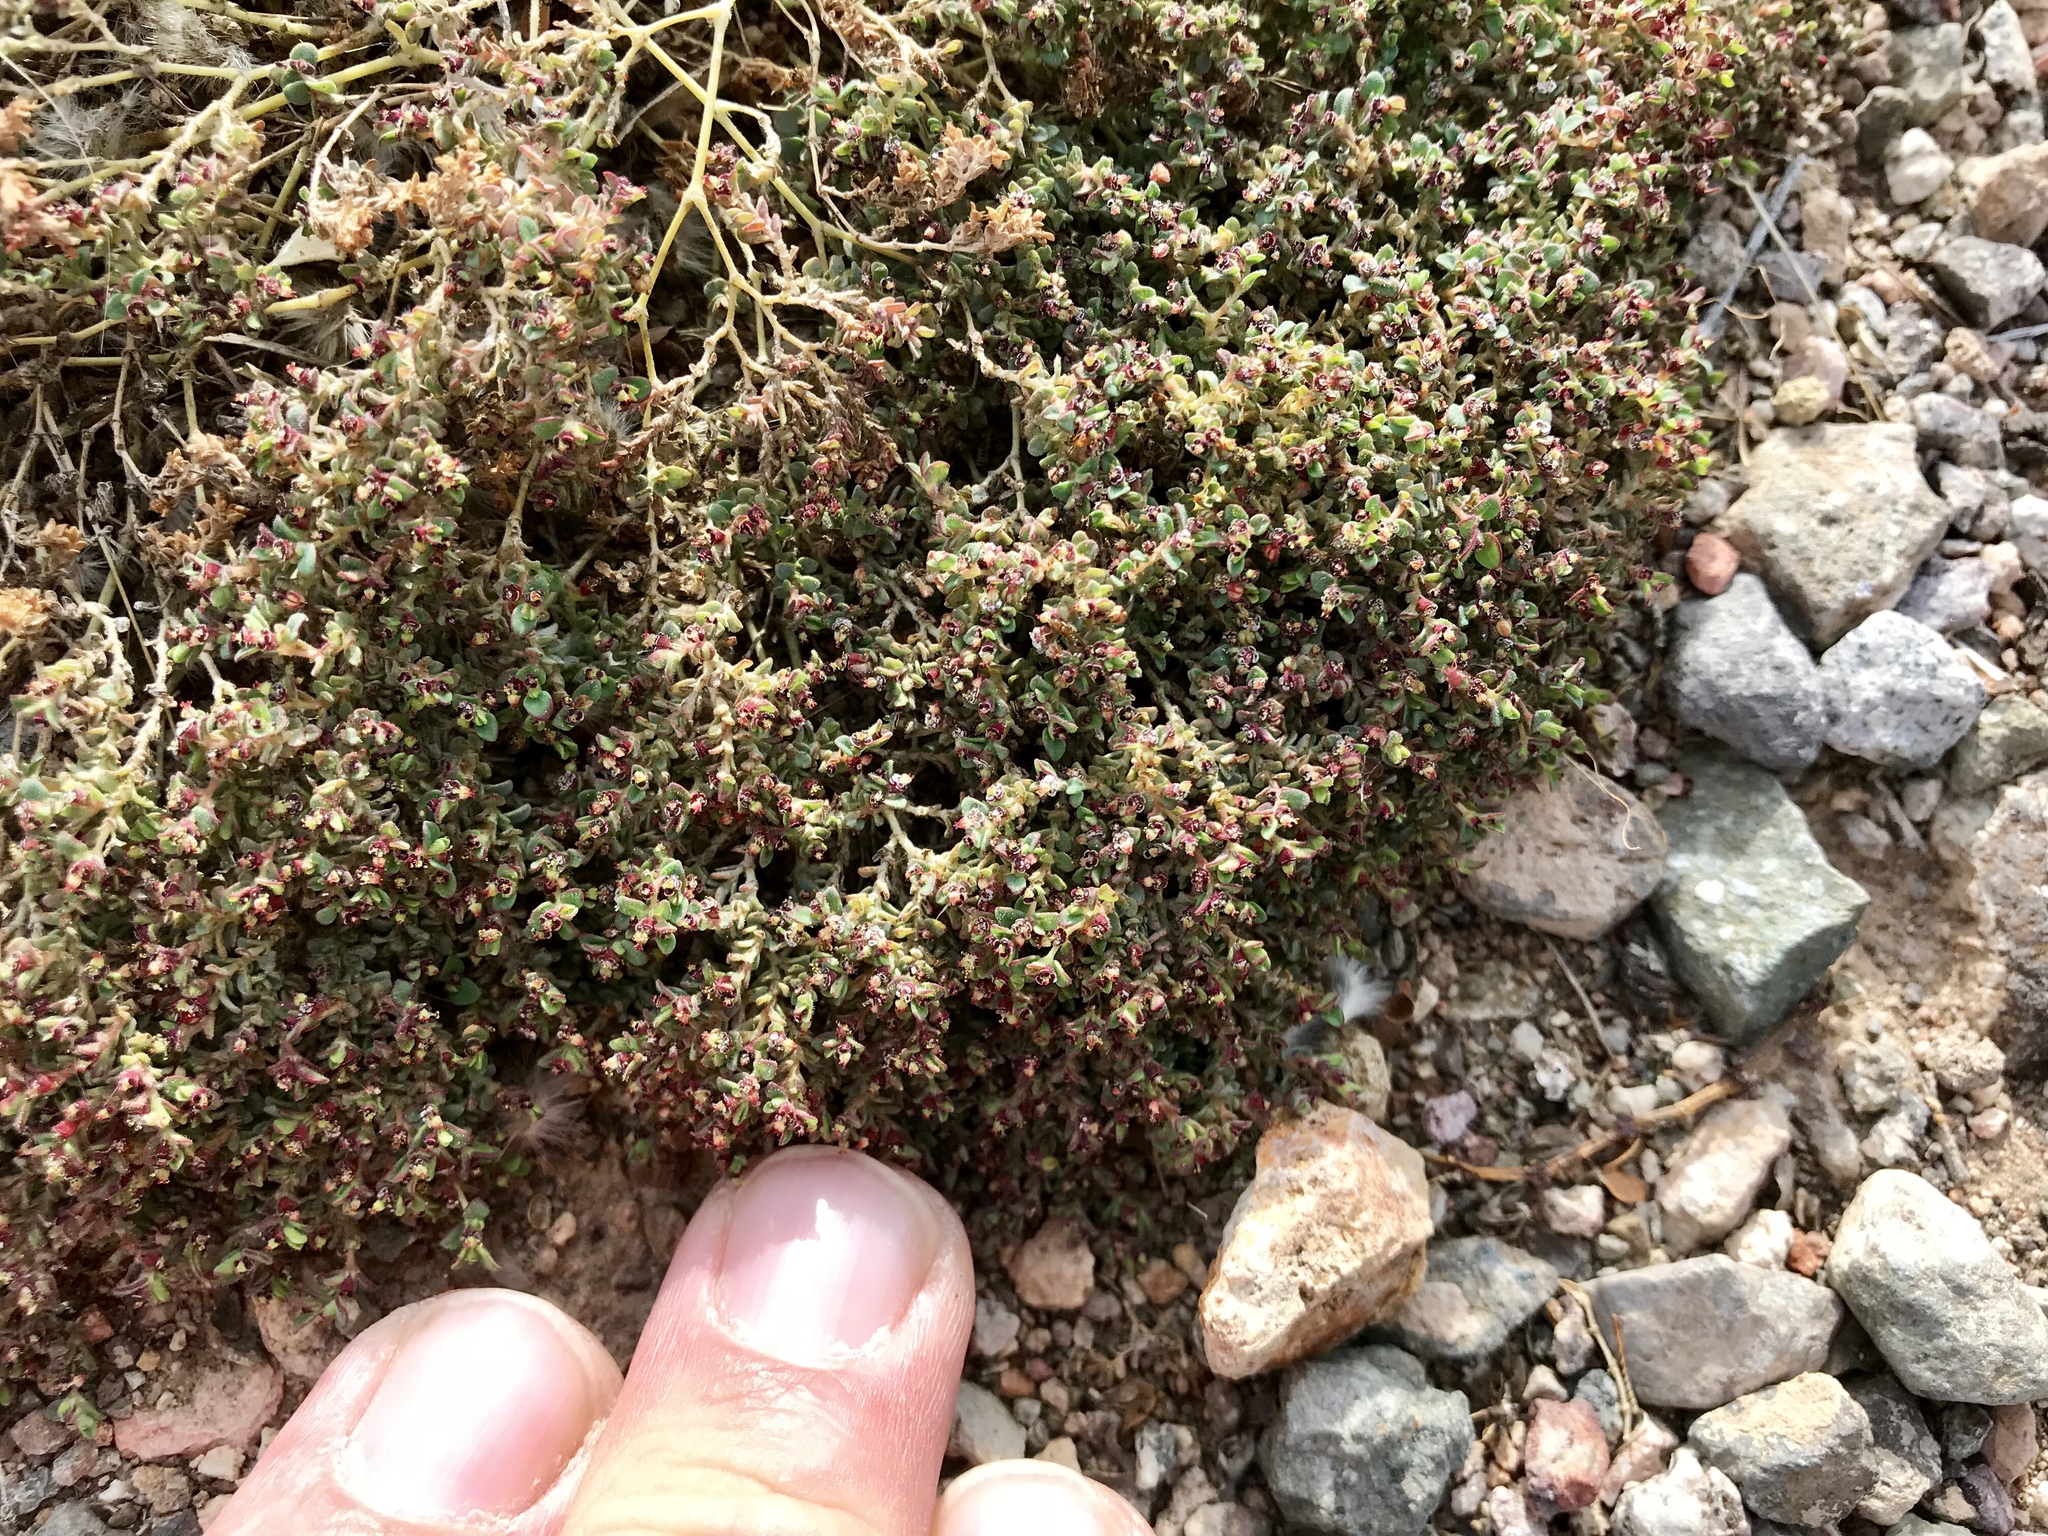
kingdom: Plantae
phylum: Tracheophyta
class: Magnoliopsida
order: Malpighiales
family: Euphorbiaceae
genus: Euphorbia
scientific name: Euphorbia polycarpa
